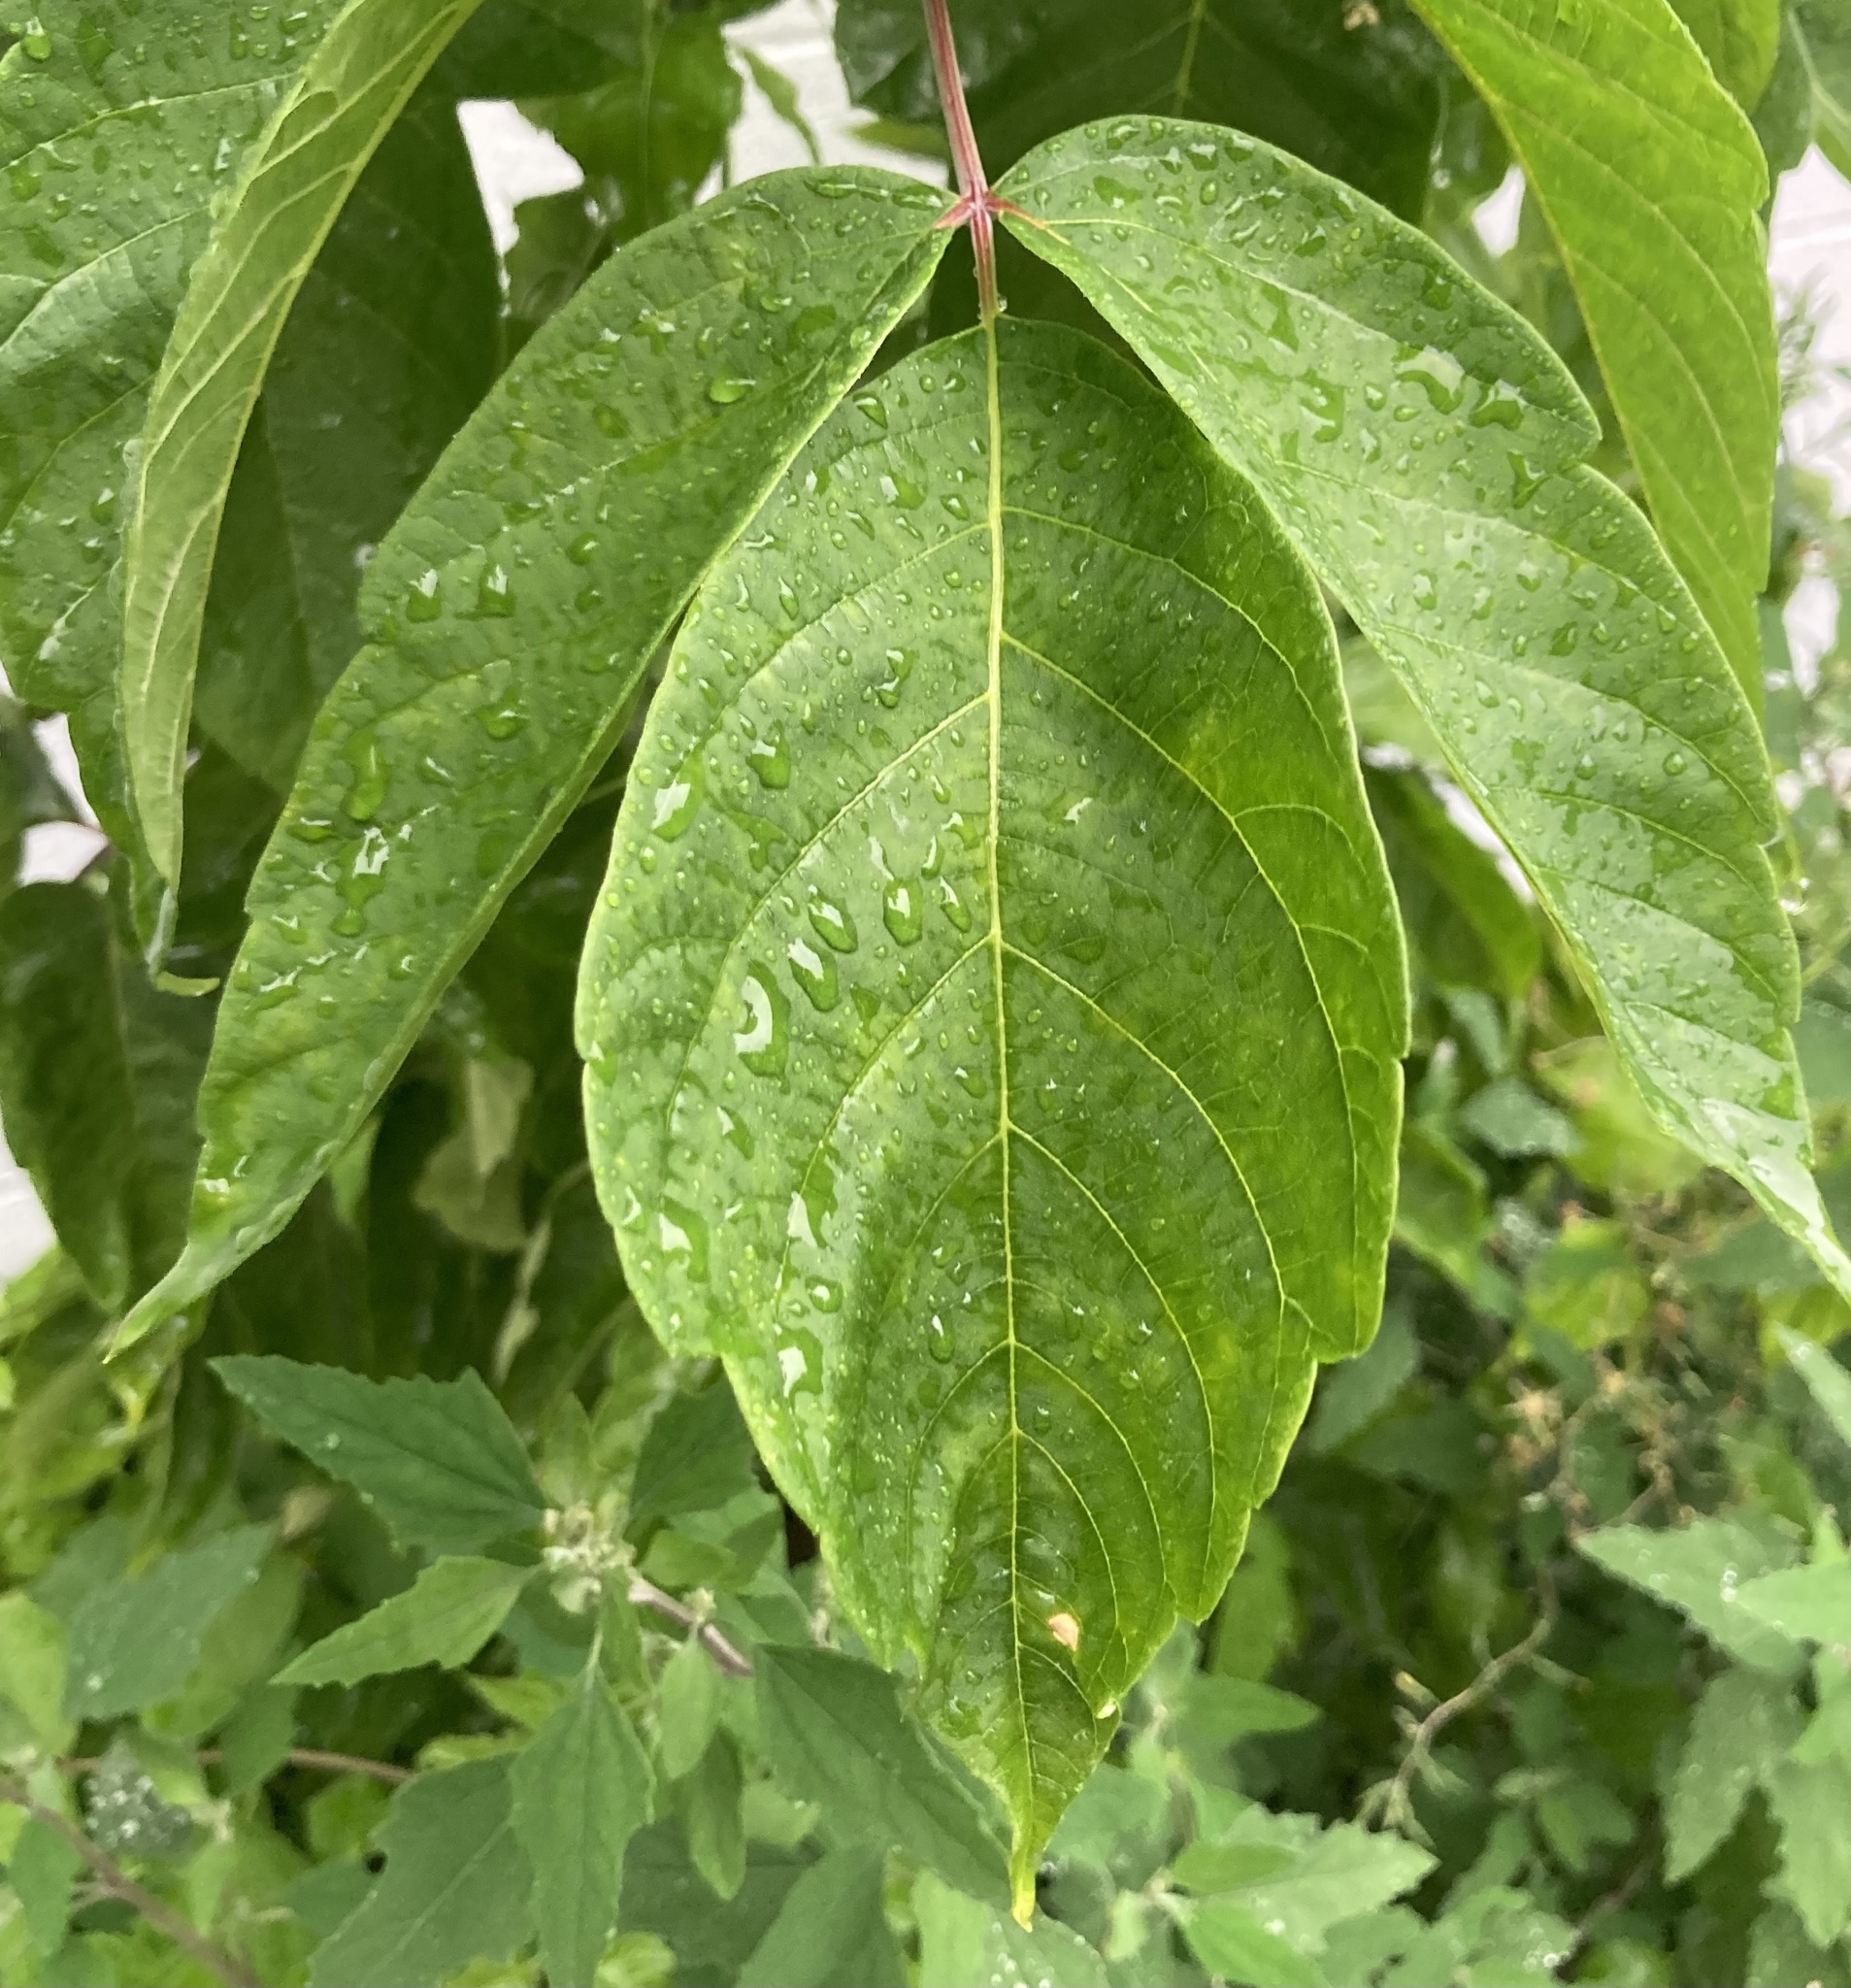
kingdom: Plantae
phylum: Tracheophyta
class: Magnoliopsida
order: Sapindales
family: Sapindaceae
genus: Acer
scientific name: Acer negundo
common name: Ashleaf maple
